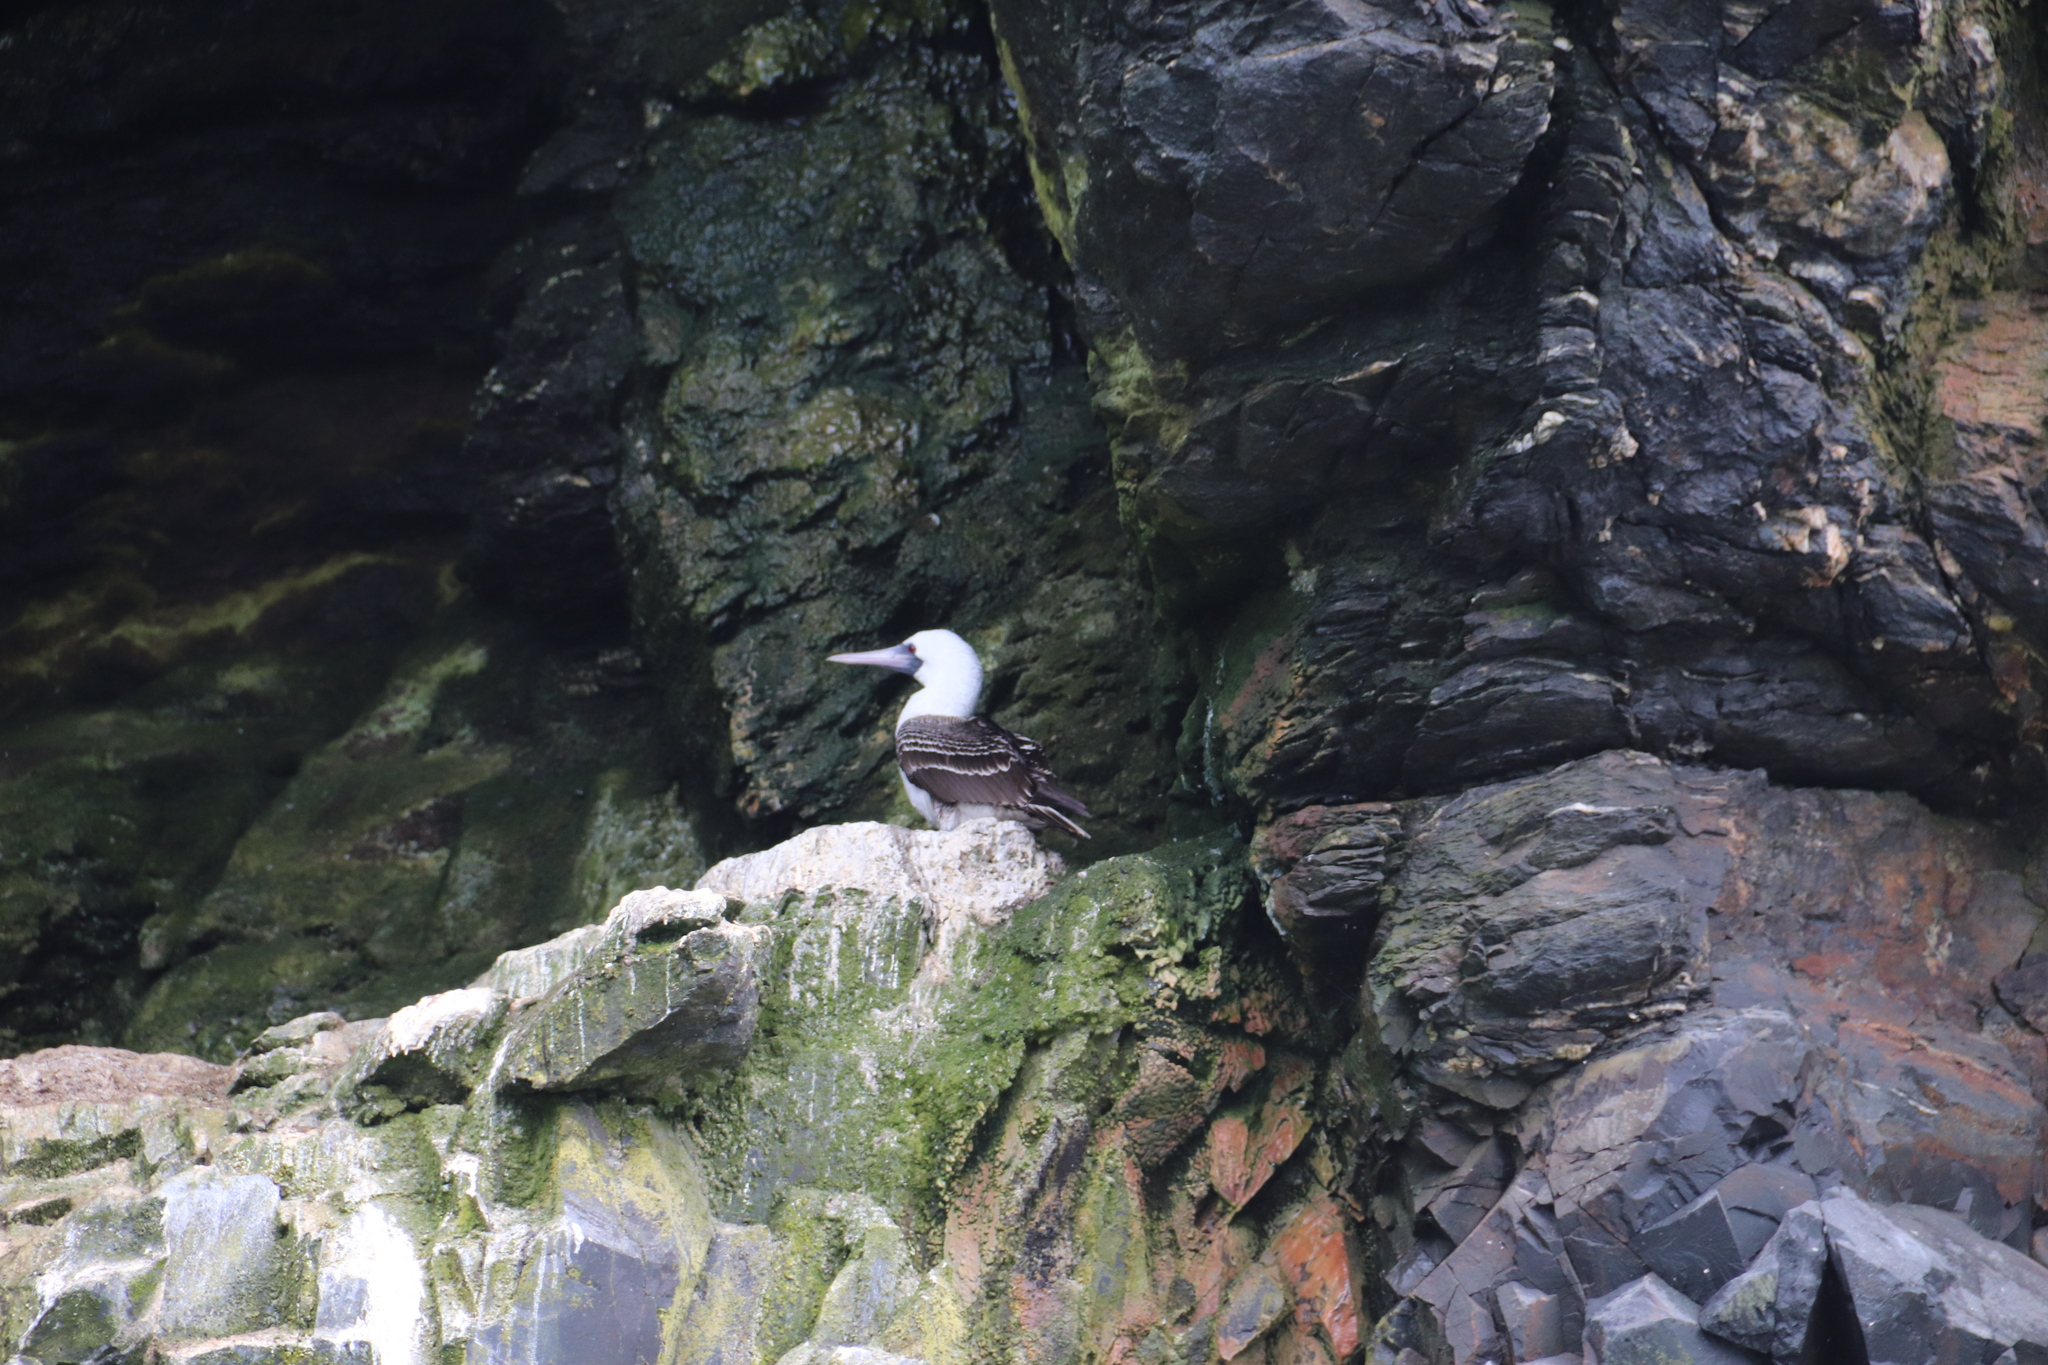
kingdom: Animalia
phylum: Chordata
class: Aves
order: Suliformes
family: Sulidae
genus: Sula
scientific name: Sula variegata
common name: Peruvian booby
